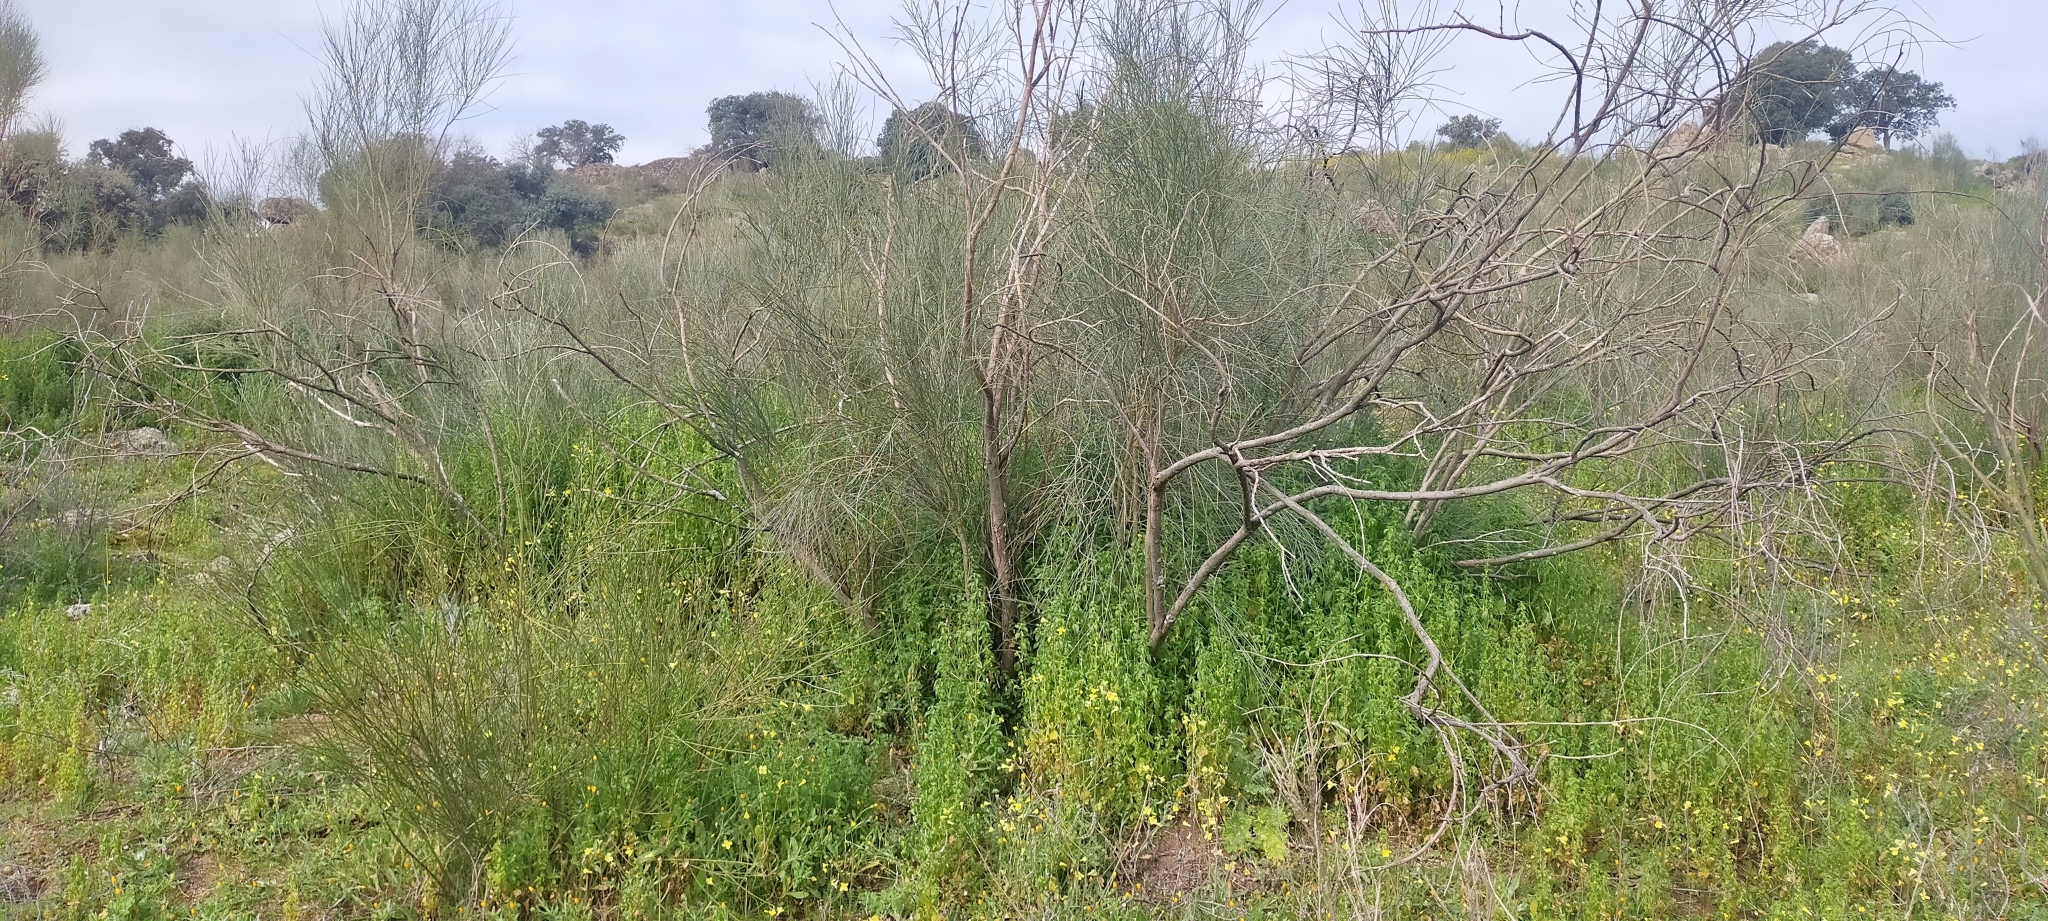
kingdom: Plantae
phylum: Tracheophyta
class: Magnoliopsida
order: Fabales
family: Fabaceae
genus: Retama
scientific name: Retama sphaerocarpa
